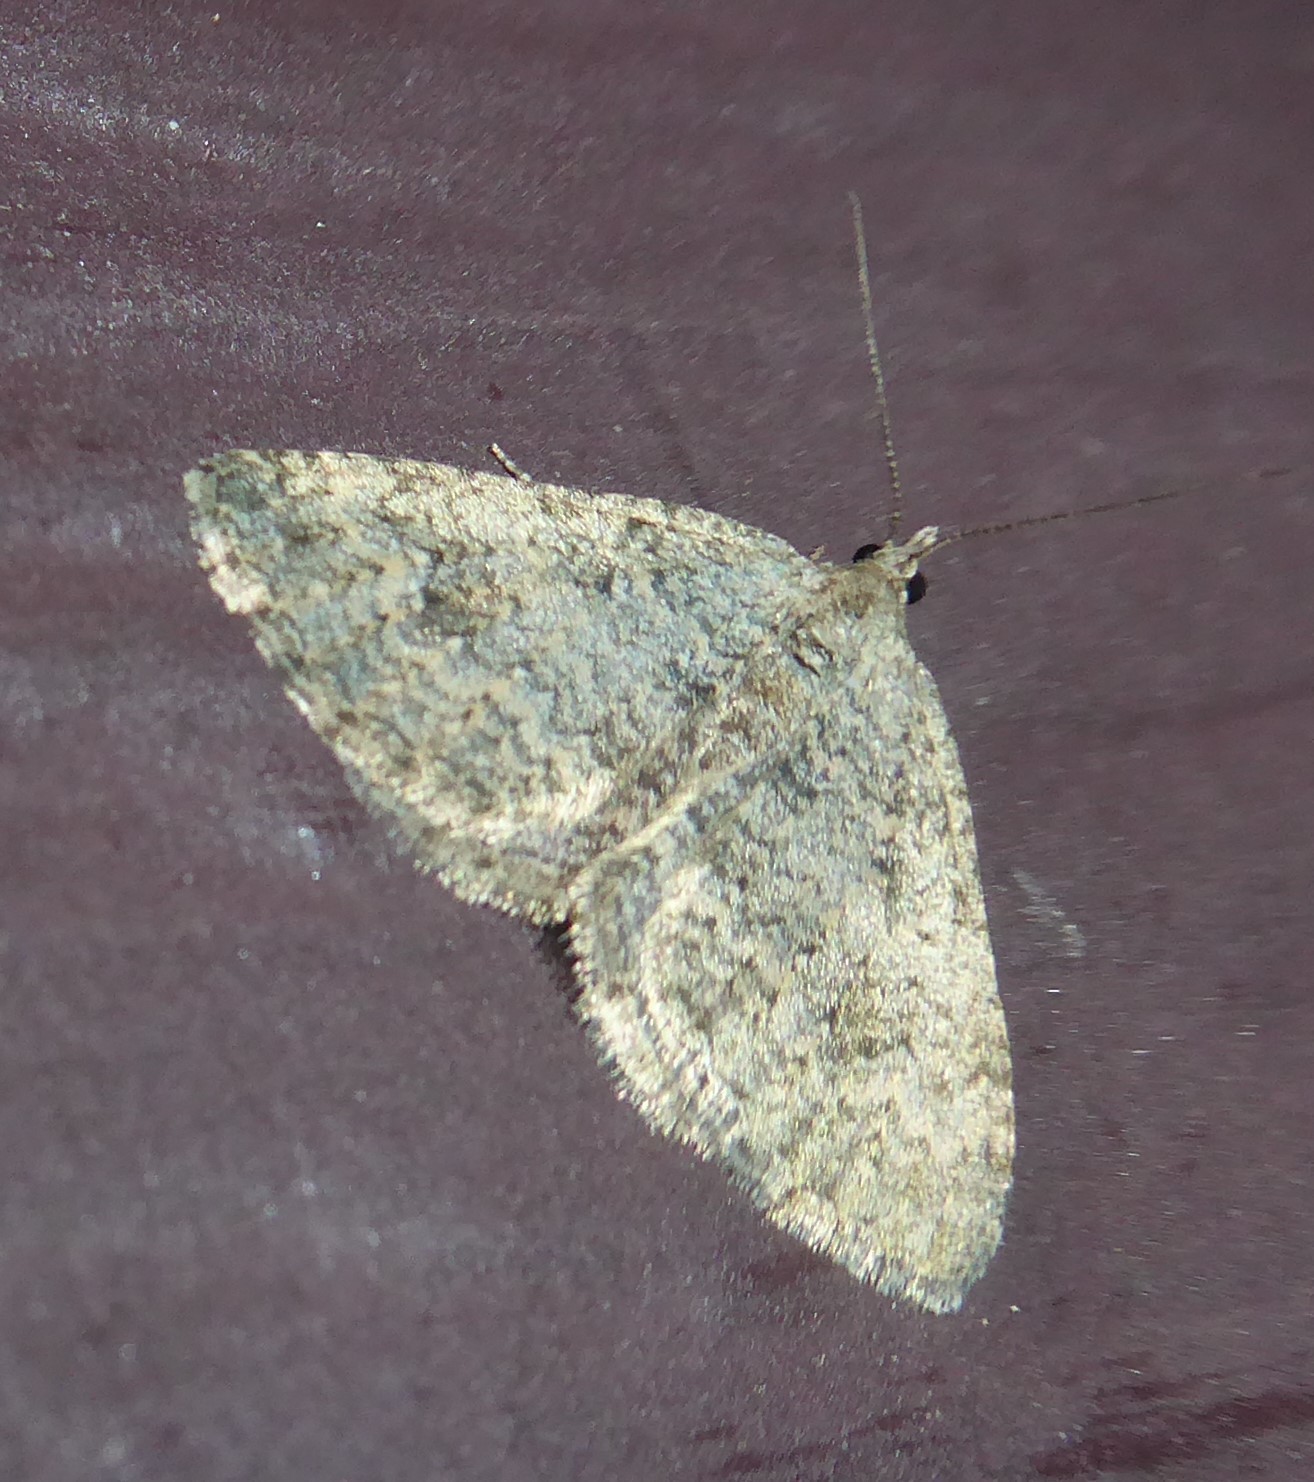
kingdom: Animalia
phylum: Arthropoda
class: Insecta
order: Lepidoptera
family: Geometridae
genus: Helastia
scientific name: Helastia corcularia
